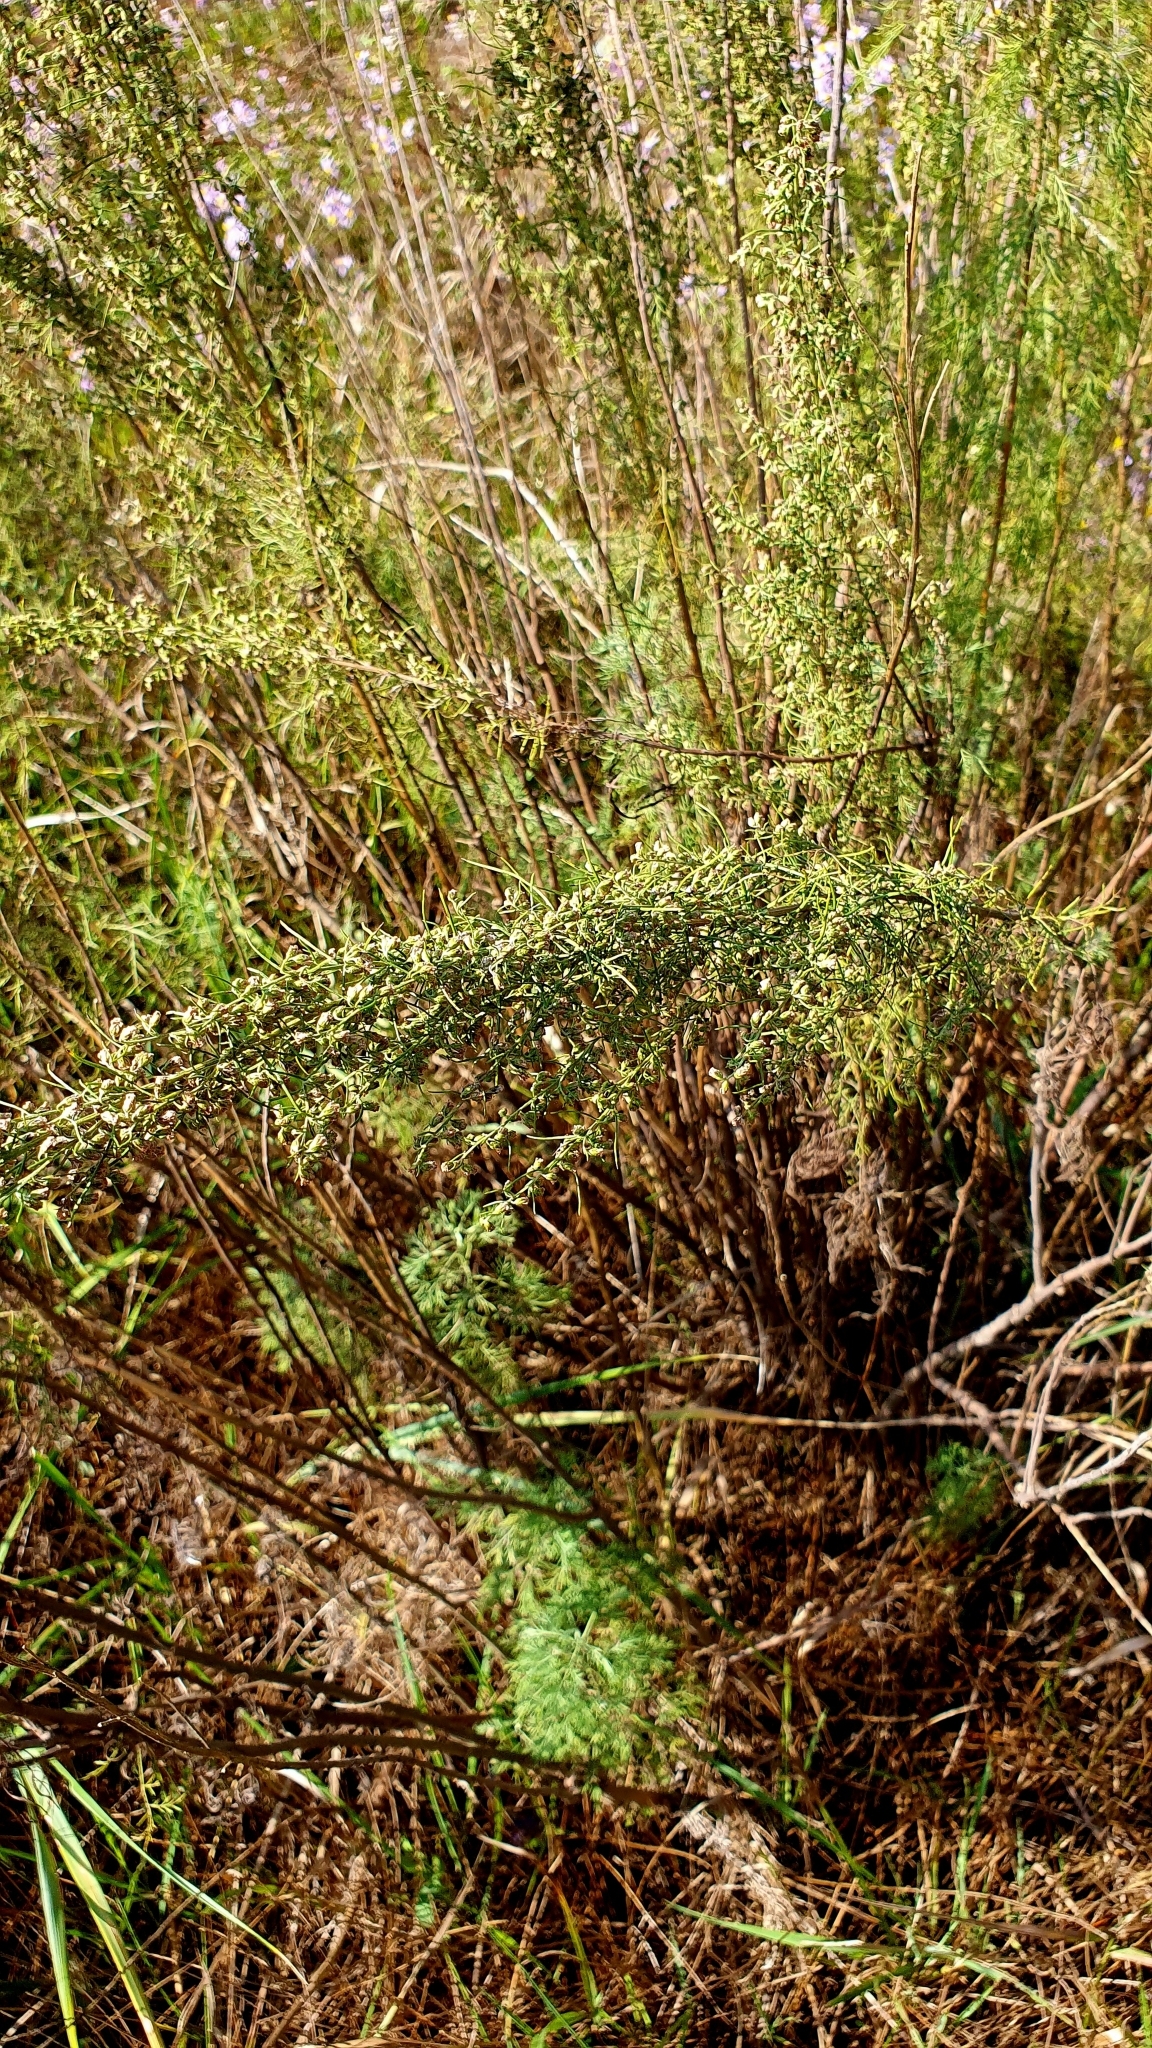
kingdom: Plantae
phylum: Tracheophyta
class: Magnoliopsida
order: Asterales
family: Asteraceae
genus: Artemisia
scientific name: Artemisia abrotanum
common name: Southernwood
